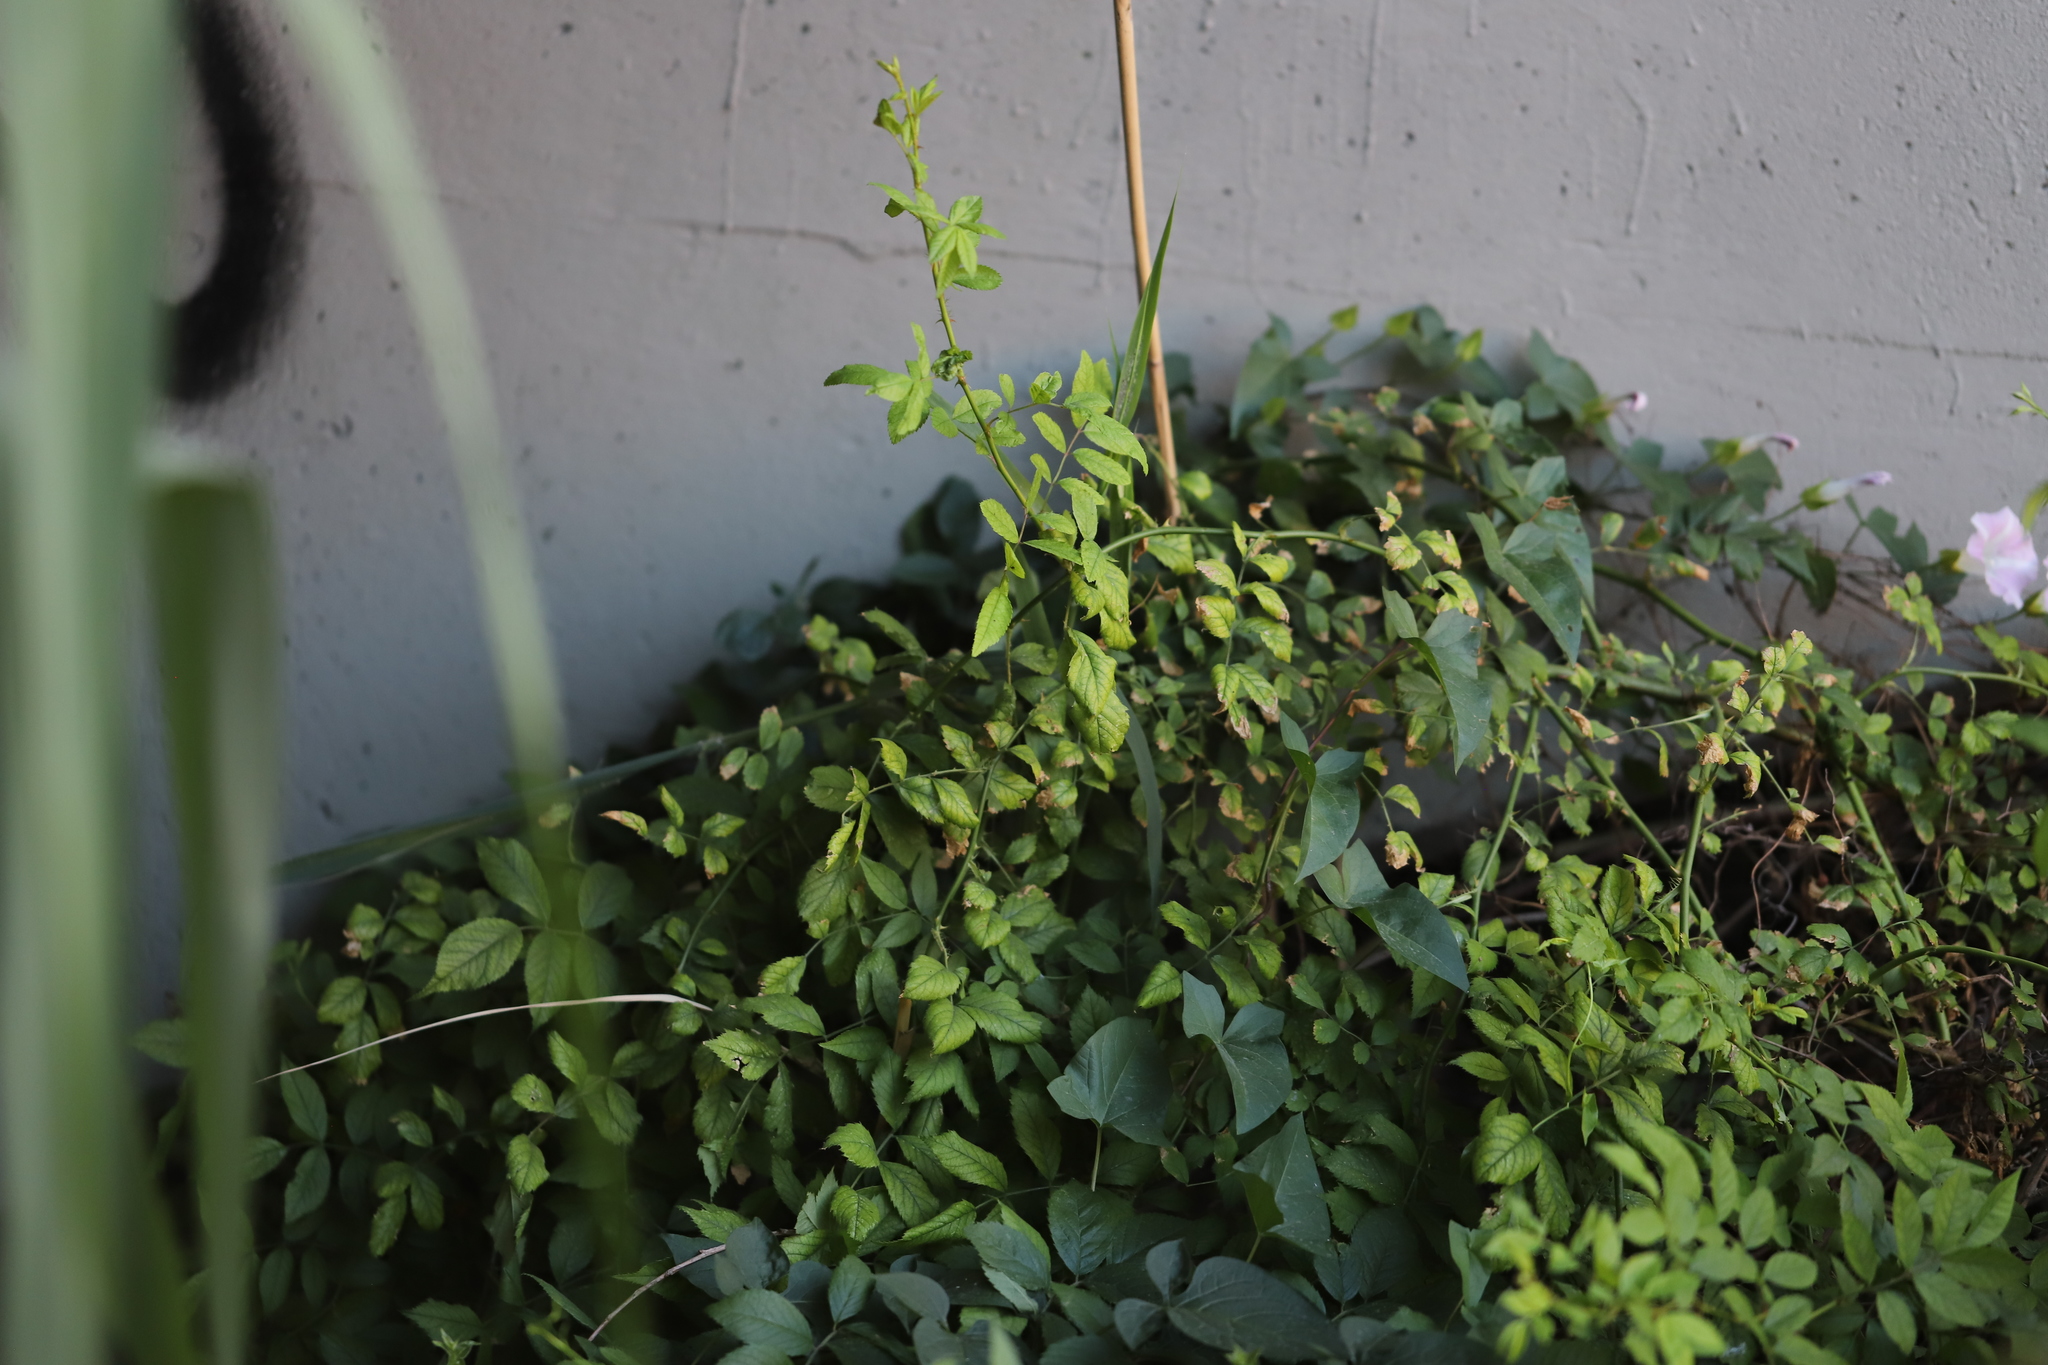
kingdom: Plantae
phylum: Tracheophyta
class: Magnoliopsida
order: Rosales
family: Rosaceae
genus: Rosa
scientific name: Rosa multiflora
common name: Multiflora rose
